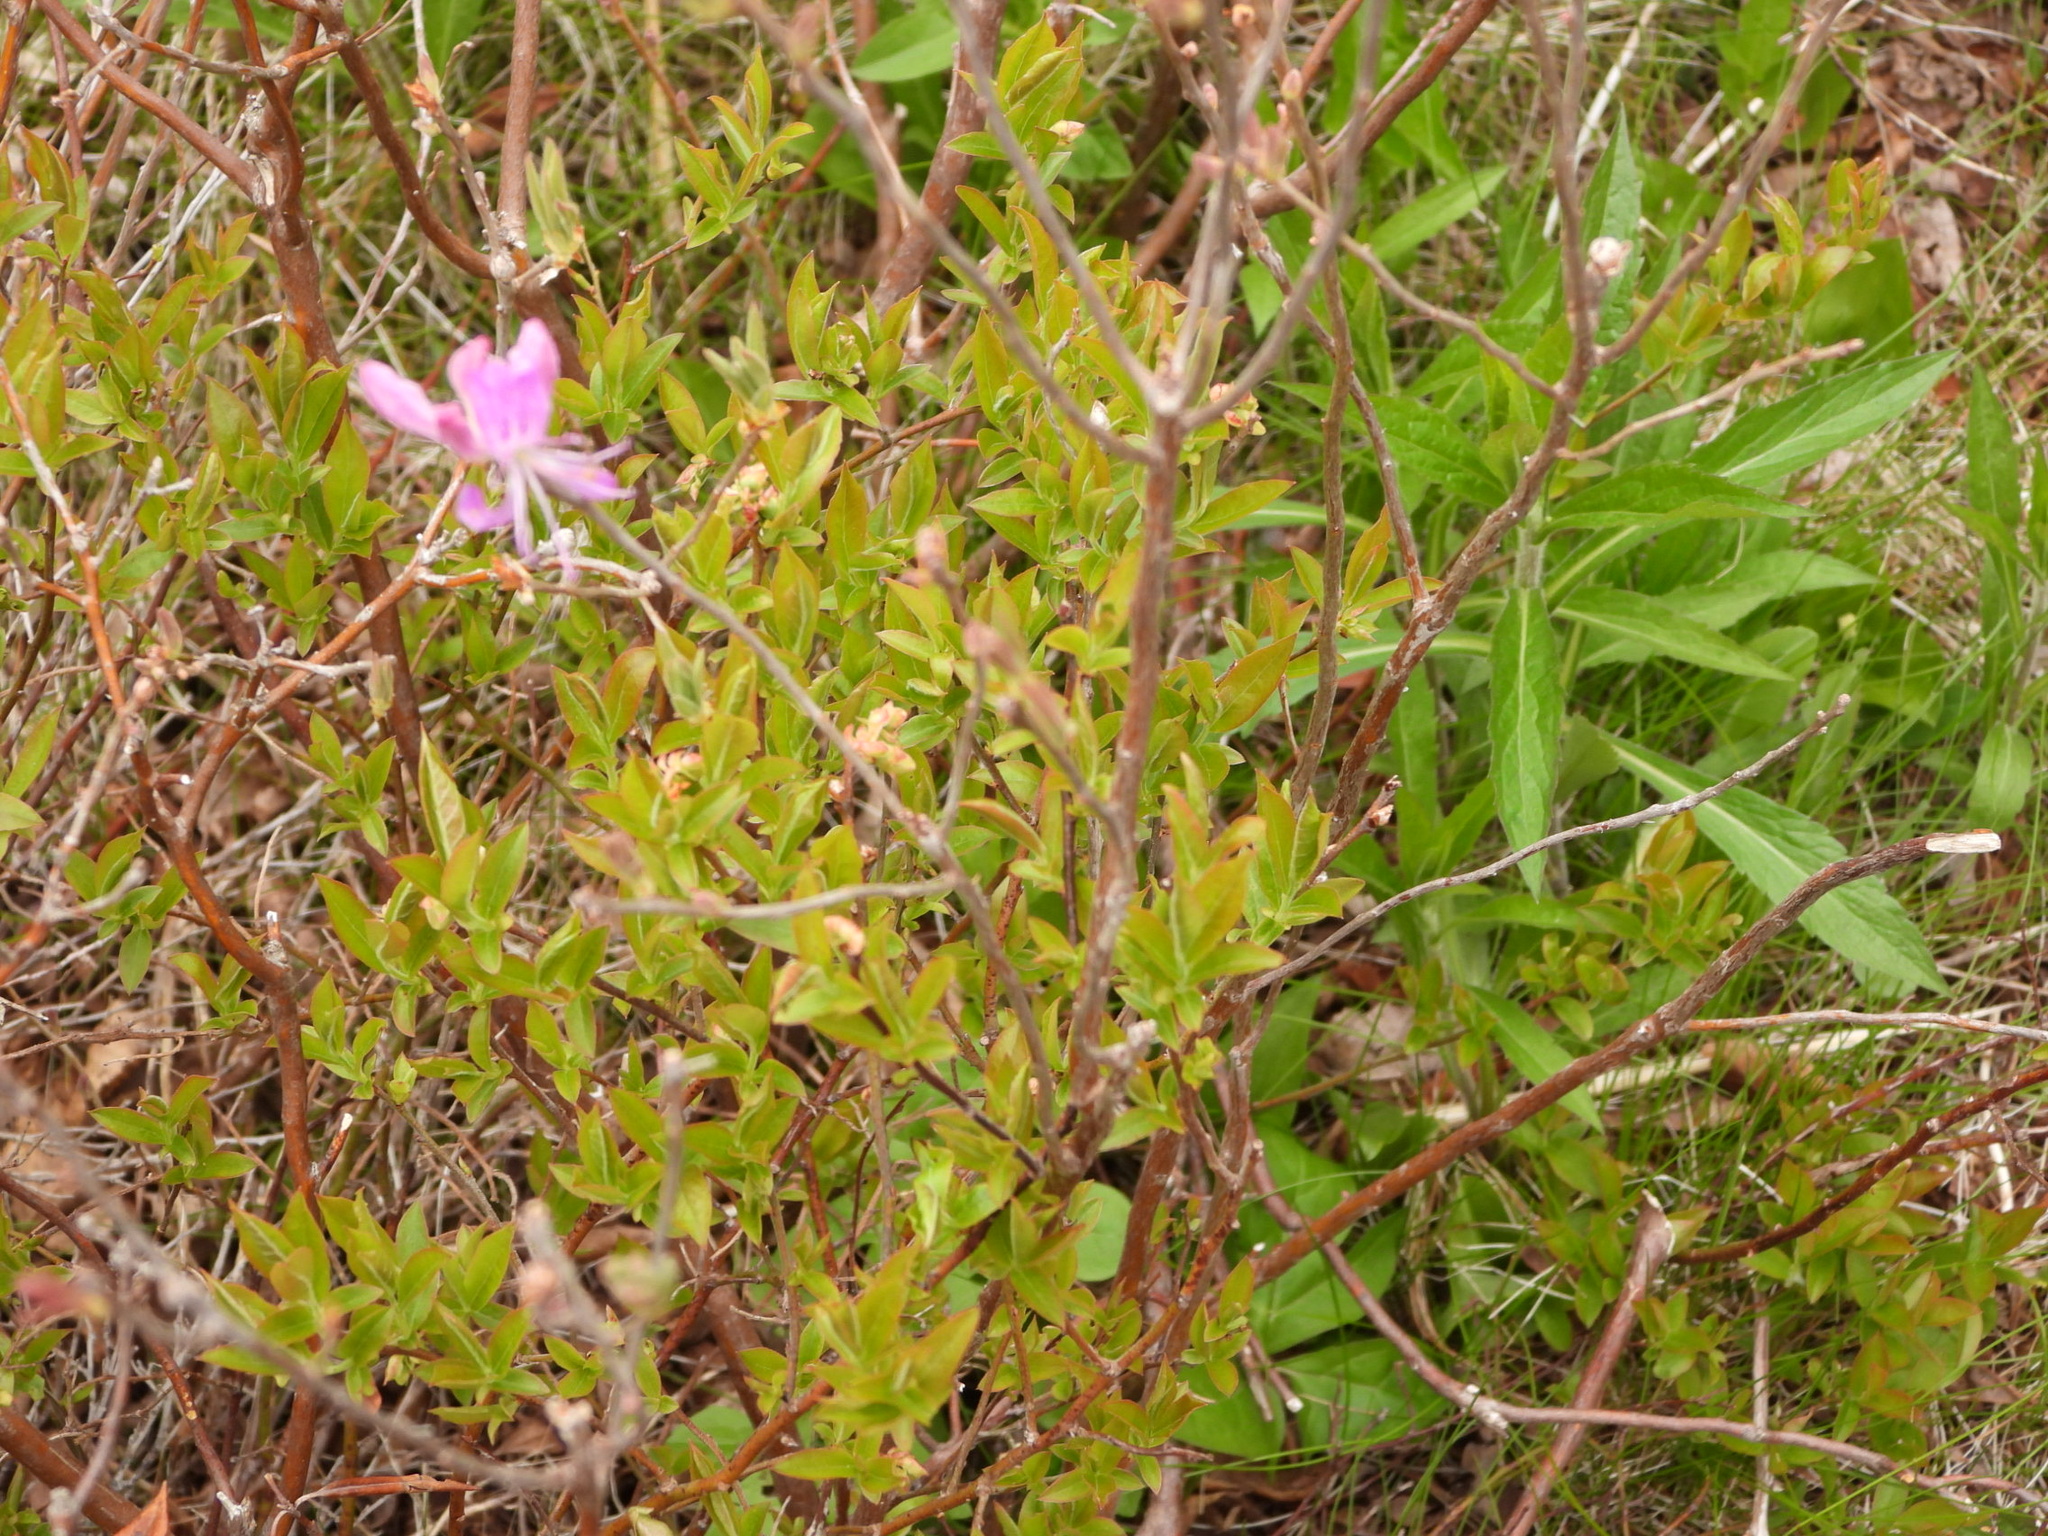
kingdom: Plantae
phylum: Tracheophyta
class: Magnoliopsida
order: Ericales
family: Ericaceae
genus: Rhododendron
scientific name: Rhododendron canadense
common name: Rhodora
